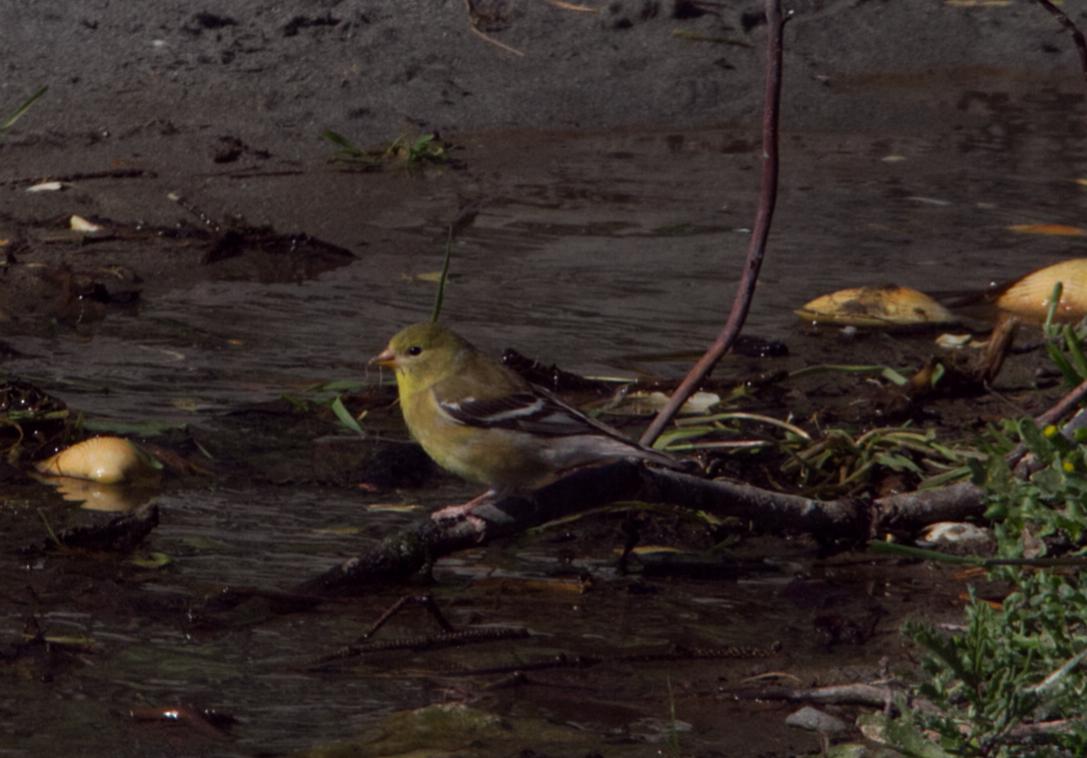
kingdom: Animalia
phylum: Chordata
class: Aves
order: Passeriformes
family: Fringillidae
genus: Spinus
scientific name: Spinus tristis
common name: American goldfinch
